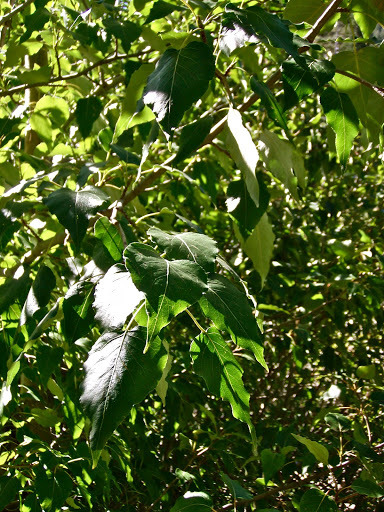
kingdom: Plantae
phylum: Tracheophyta
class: Magnoliopsida
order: Malpighiales
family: Salicaceae
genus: Populus
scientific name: Populus trichocarpa
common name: Black cottonwood
